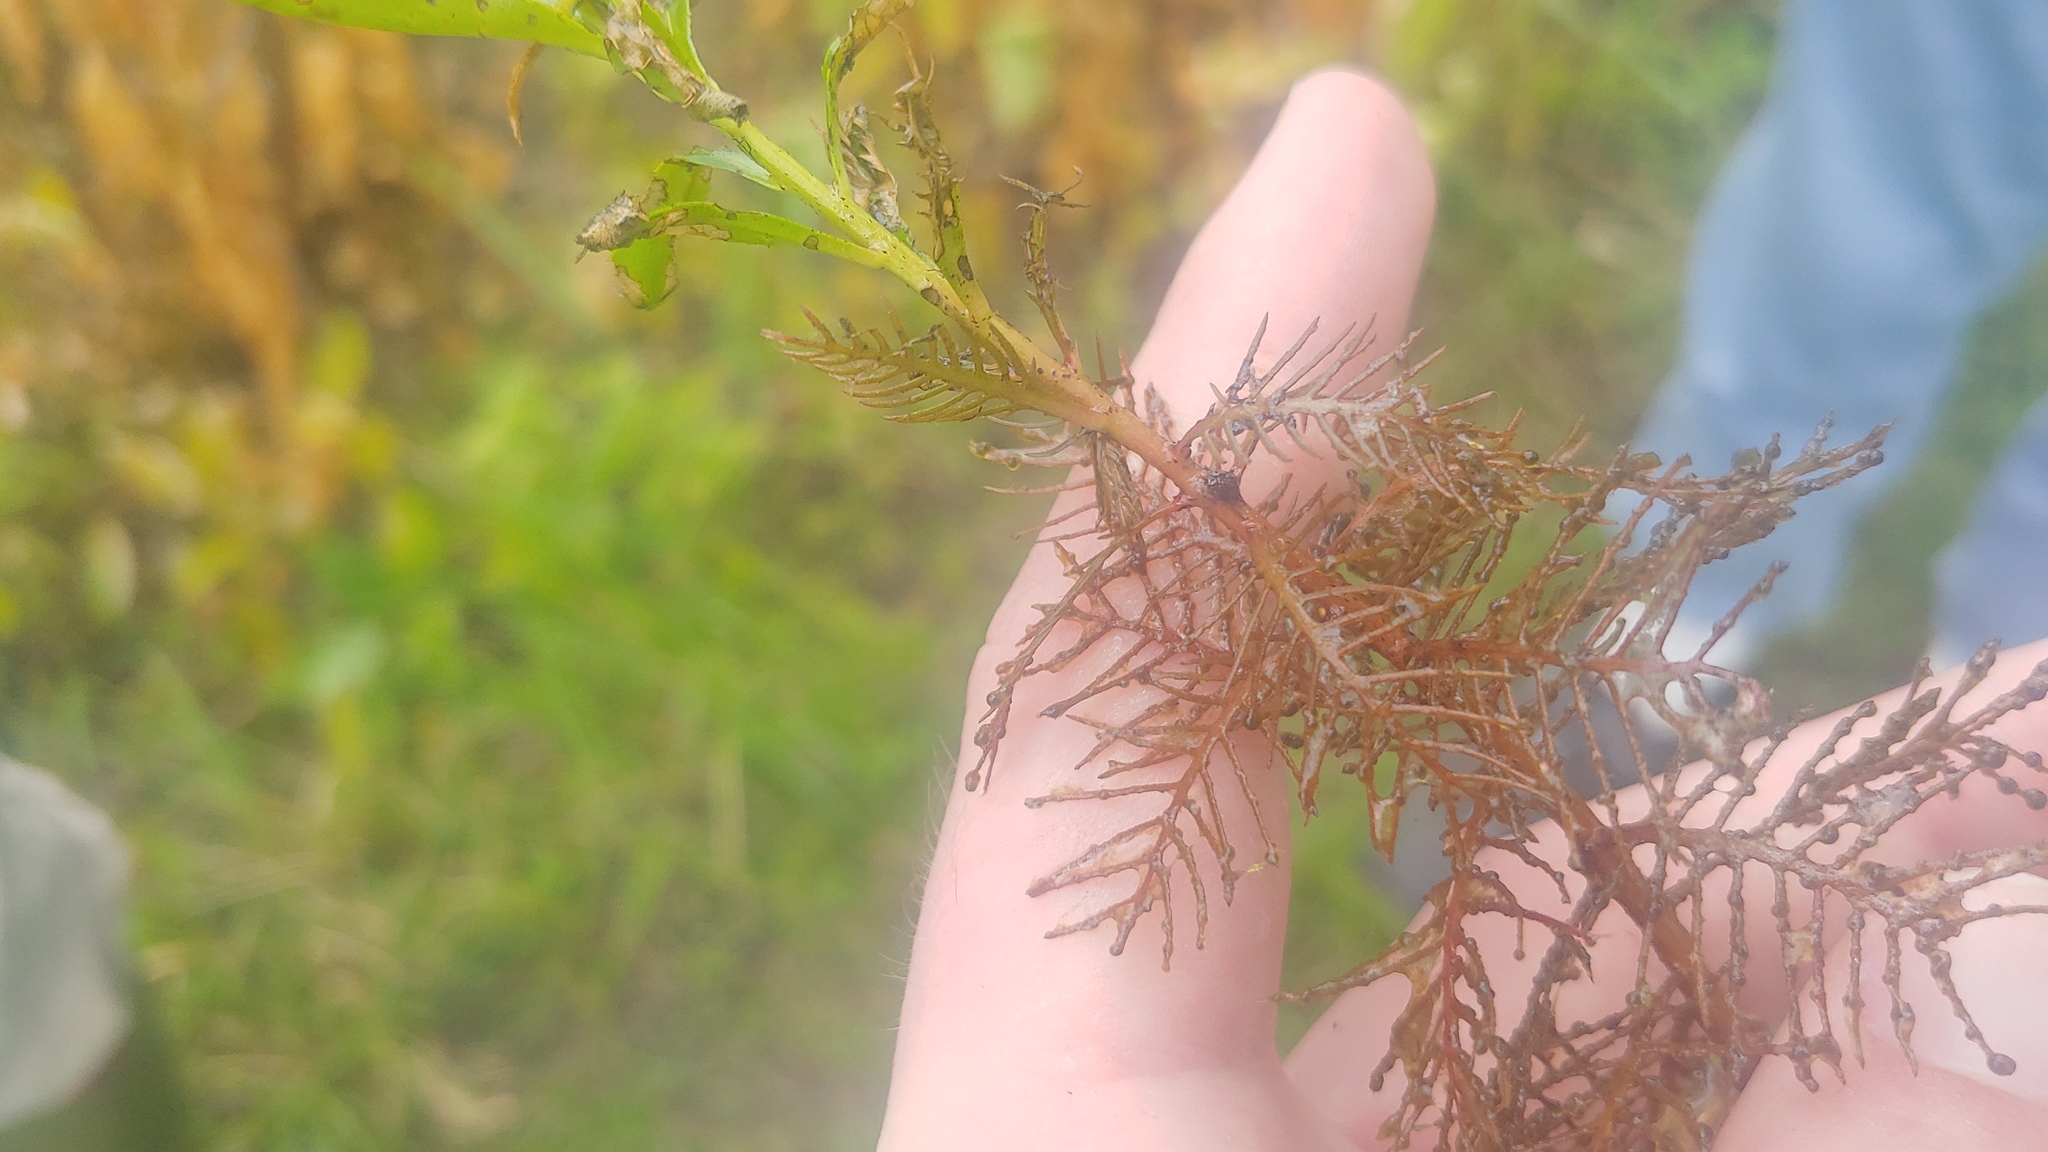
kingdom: Plantae
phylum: Tracheophyta
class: Magnoliopsida
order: Saxifragales
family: Haloragaceae
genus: Proserpinaca
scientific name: Proserpinaca palustris
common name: Marsh mermaidweed
